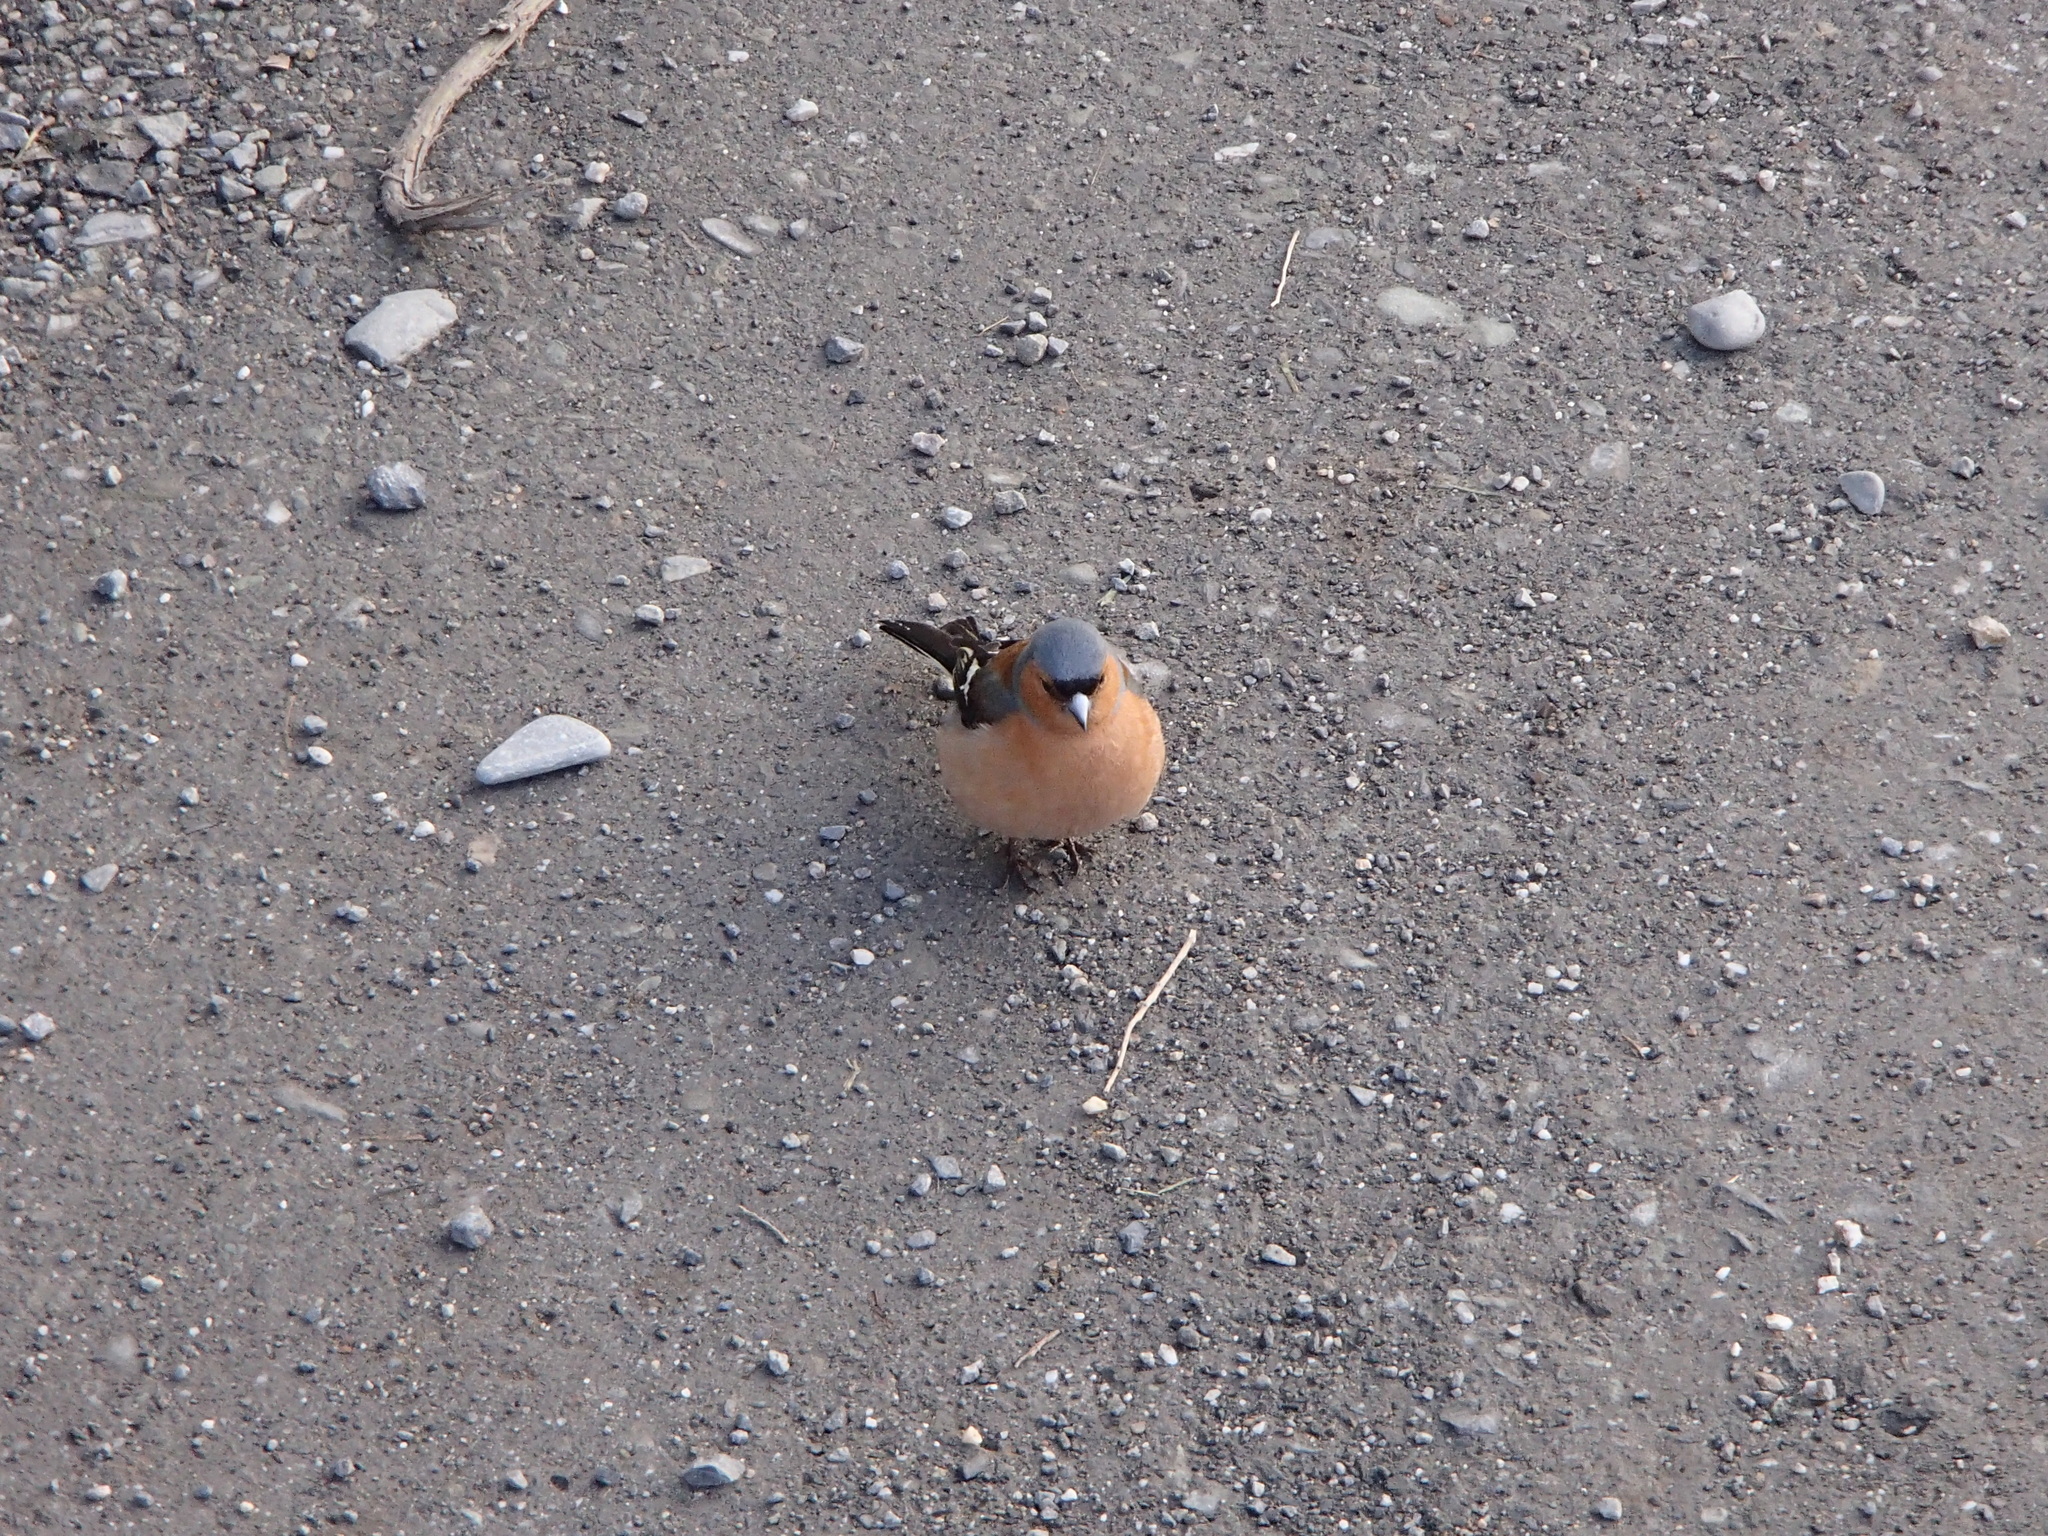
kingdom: Animalia
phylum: Chordata
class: Aves
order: Passeriformes
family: Fringillidae
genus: Fringilla
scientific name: Fringilla coelebs
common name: Common chaffinch
